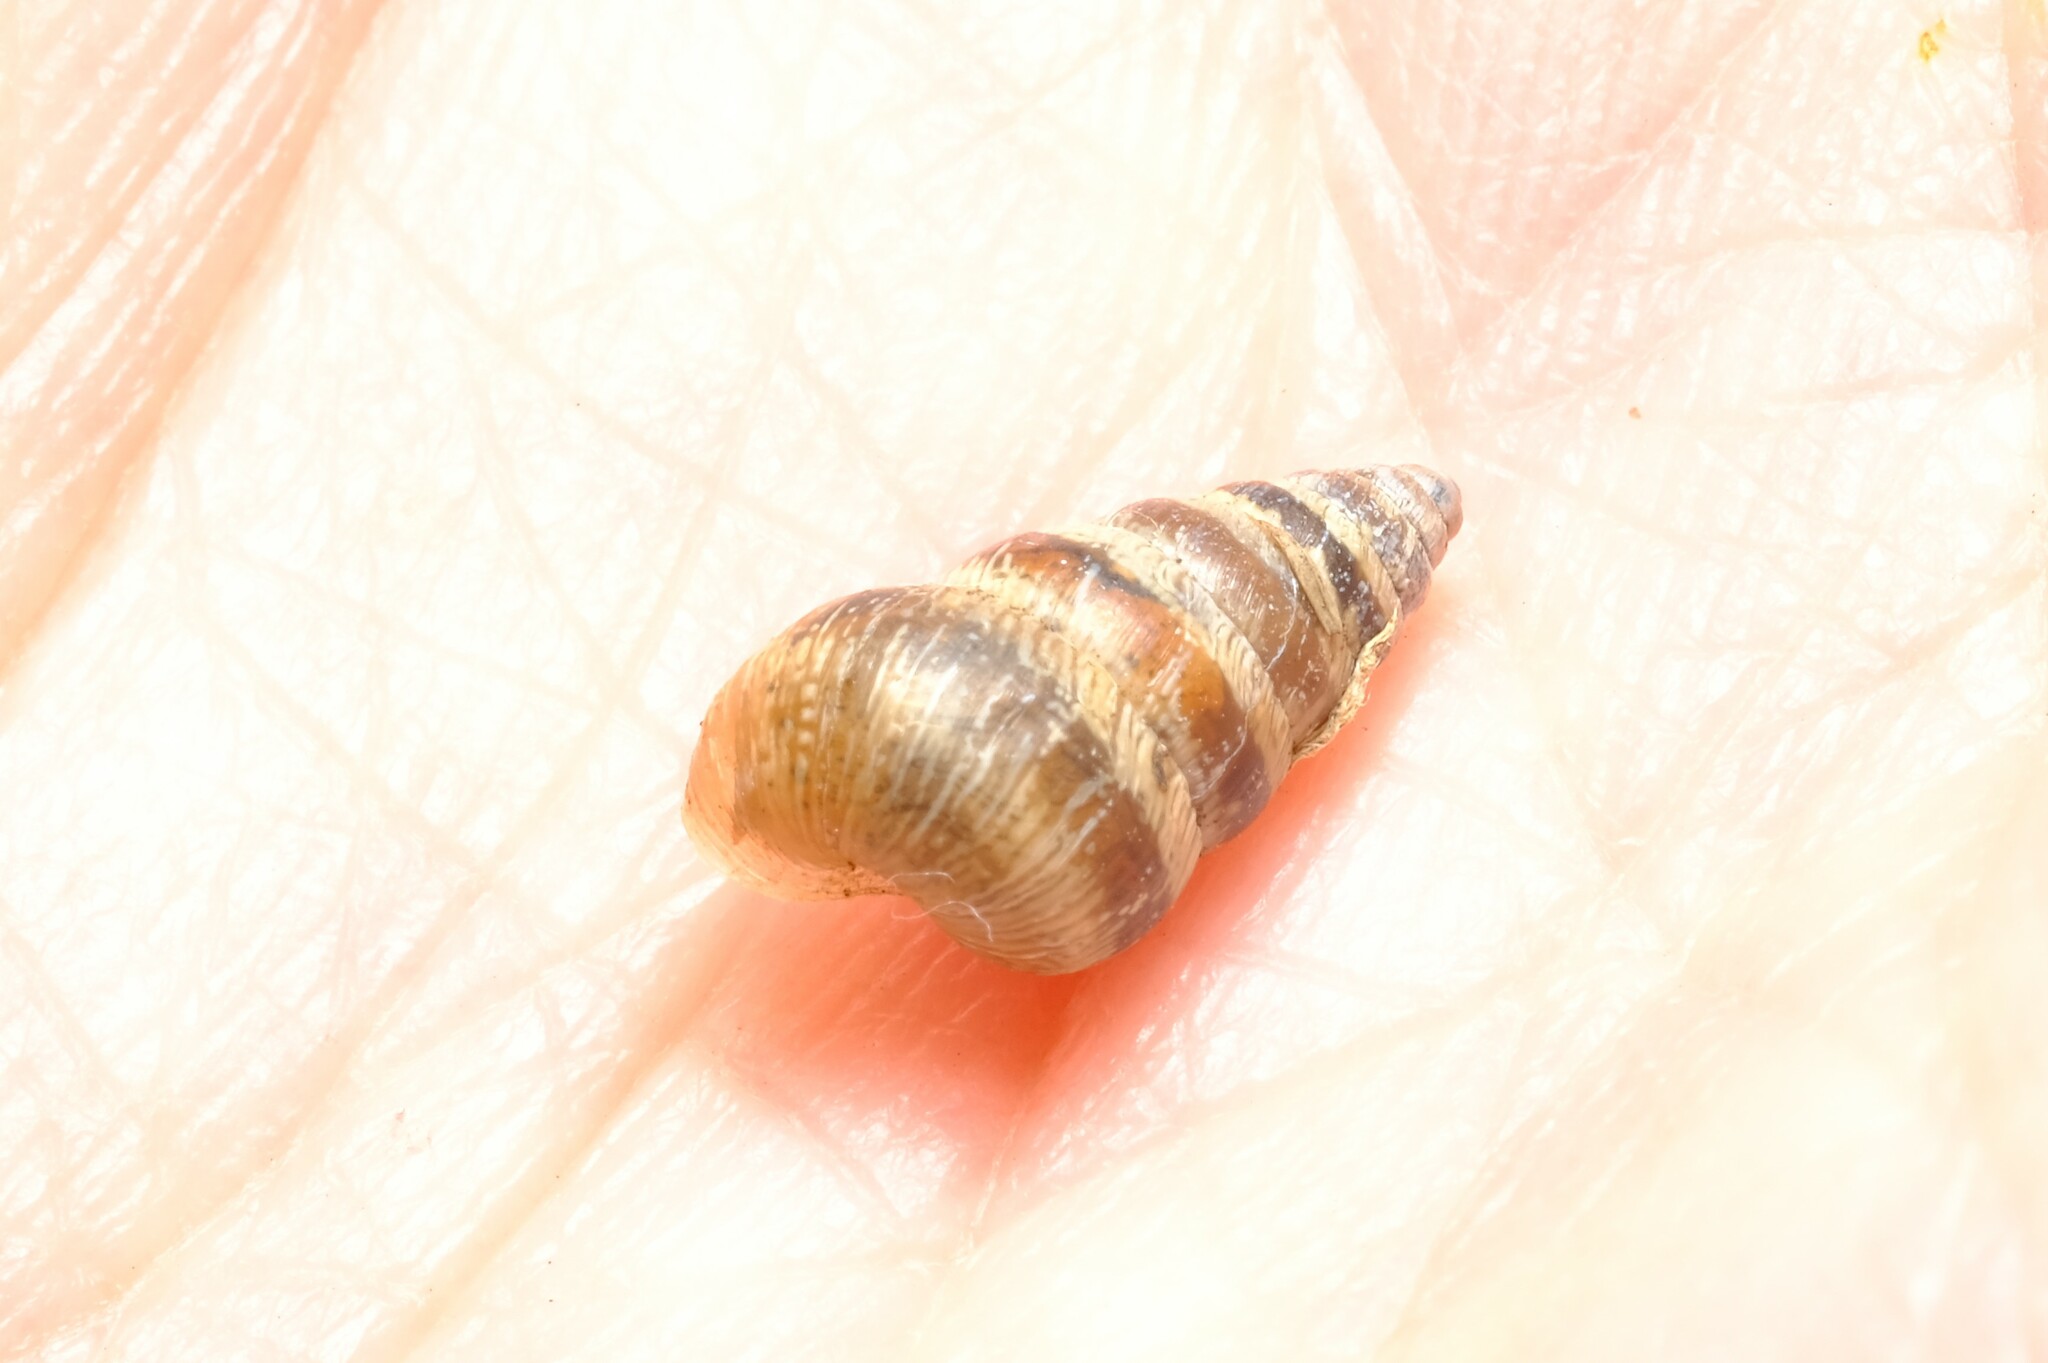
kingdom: Animalia
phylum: Mollusca
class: Gastropoda
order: Stylommatophora
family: Geomitridae
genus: Cochlicella
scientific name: Cochlicella barbara
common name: Potbellied helicellid
